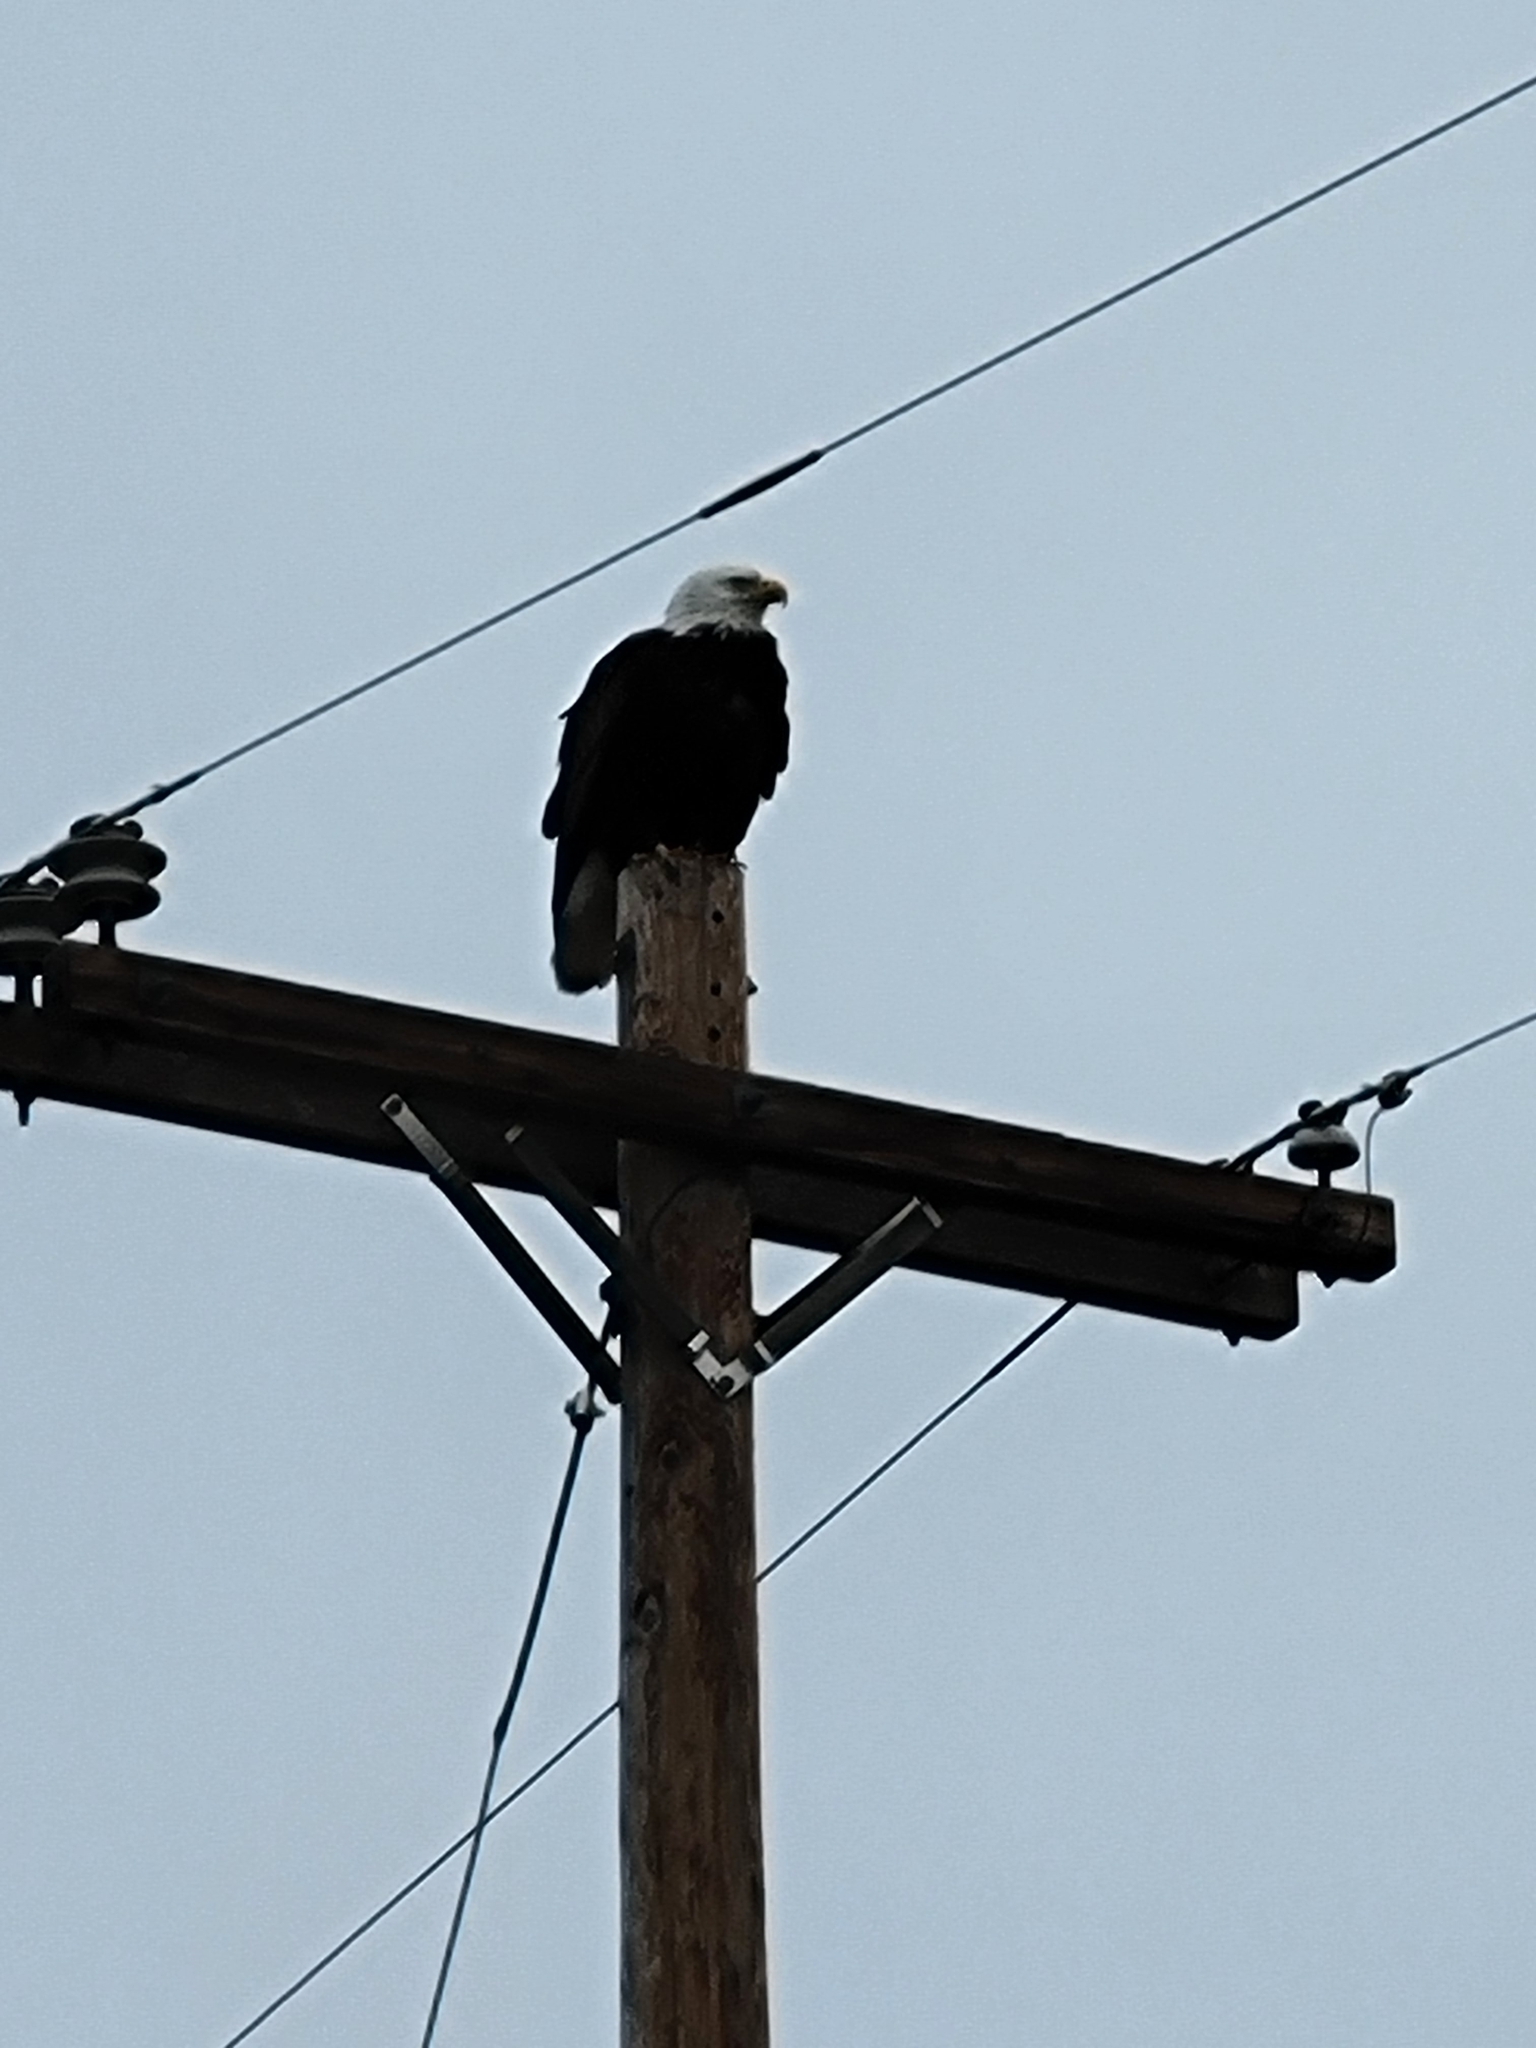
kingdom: Animalia
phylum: Chordata
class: Aves
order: Accipitriformes
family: Accipitridae
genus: Haliaeetus
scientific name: Haliaeetus leucocephalus
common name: Bald eagle
